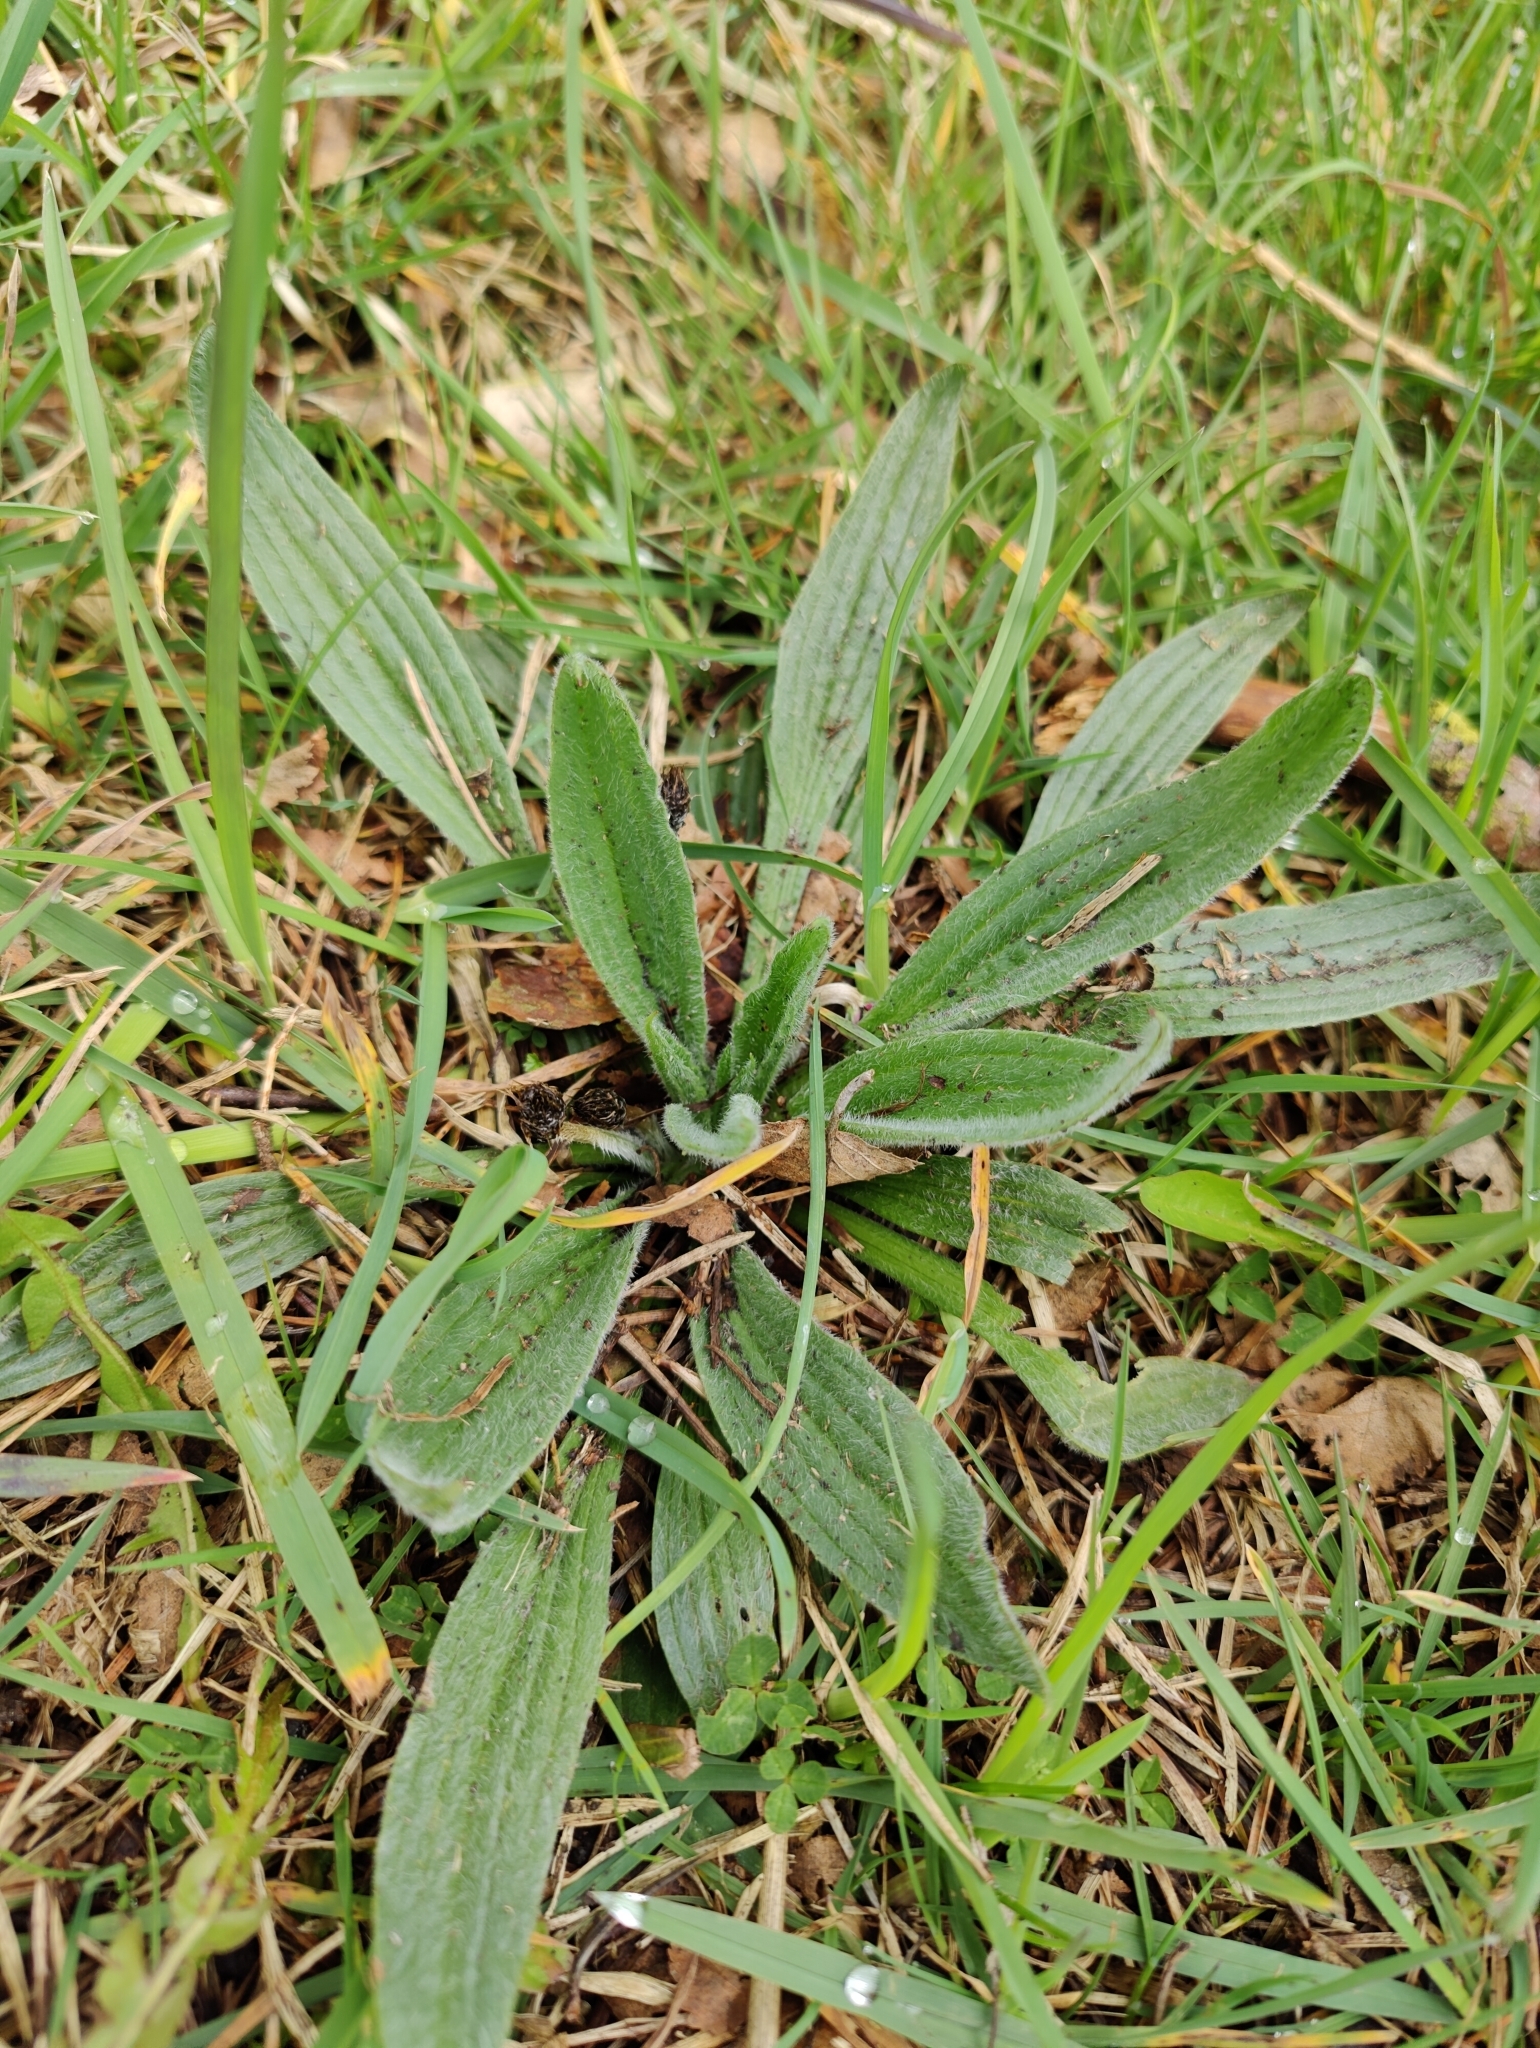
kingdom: Plantae
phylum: Tracheophyta
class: Magnoliopsida
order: Lamiales
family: Plantaginaceae
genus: Plantago
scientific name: Plantago lanceolata
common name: Ribwort plantain
